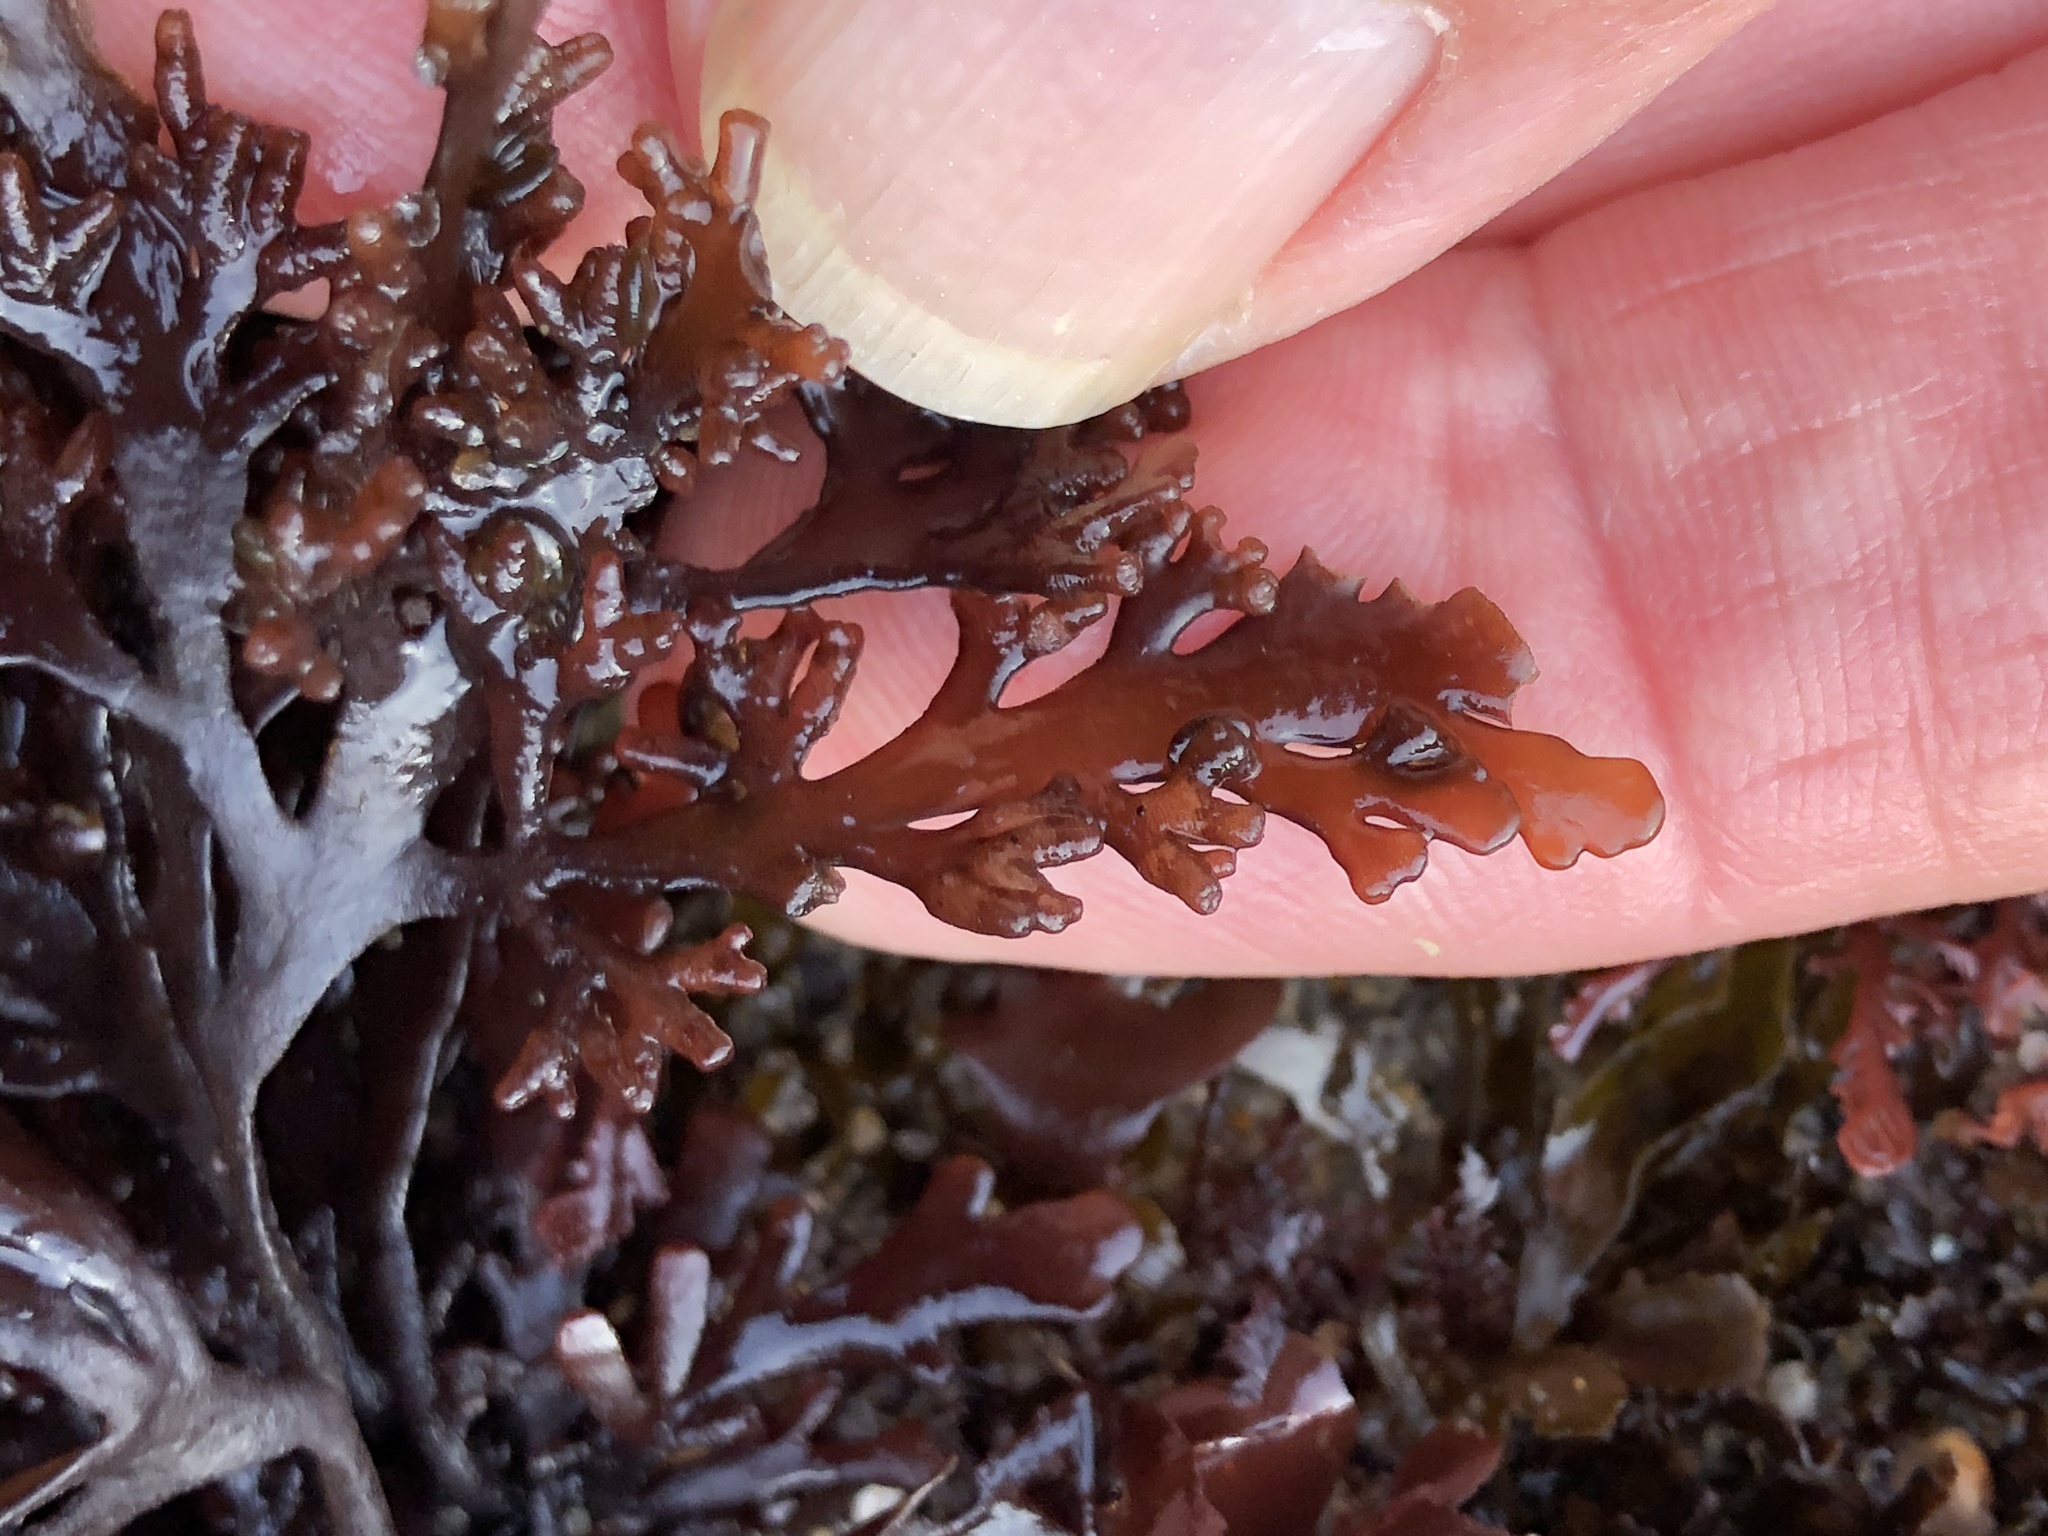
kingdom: Plantae
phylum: Rhodophyta
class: Florideophyceae
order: Ceramiales
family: Rhodomelaceae
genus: Osmundea
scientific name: Osmundea spectabilis
